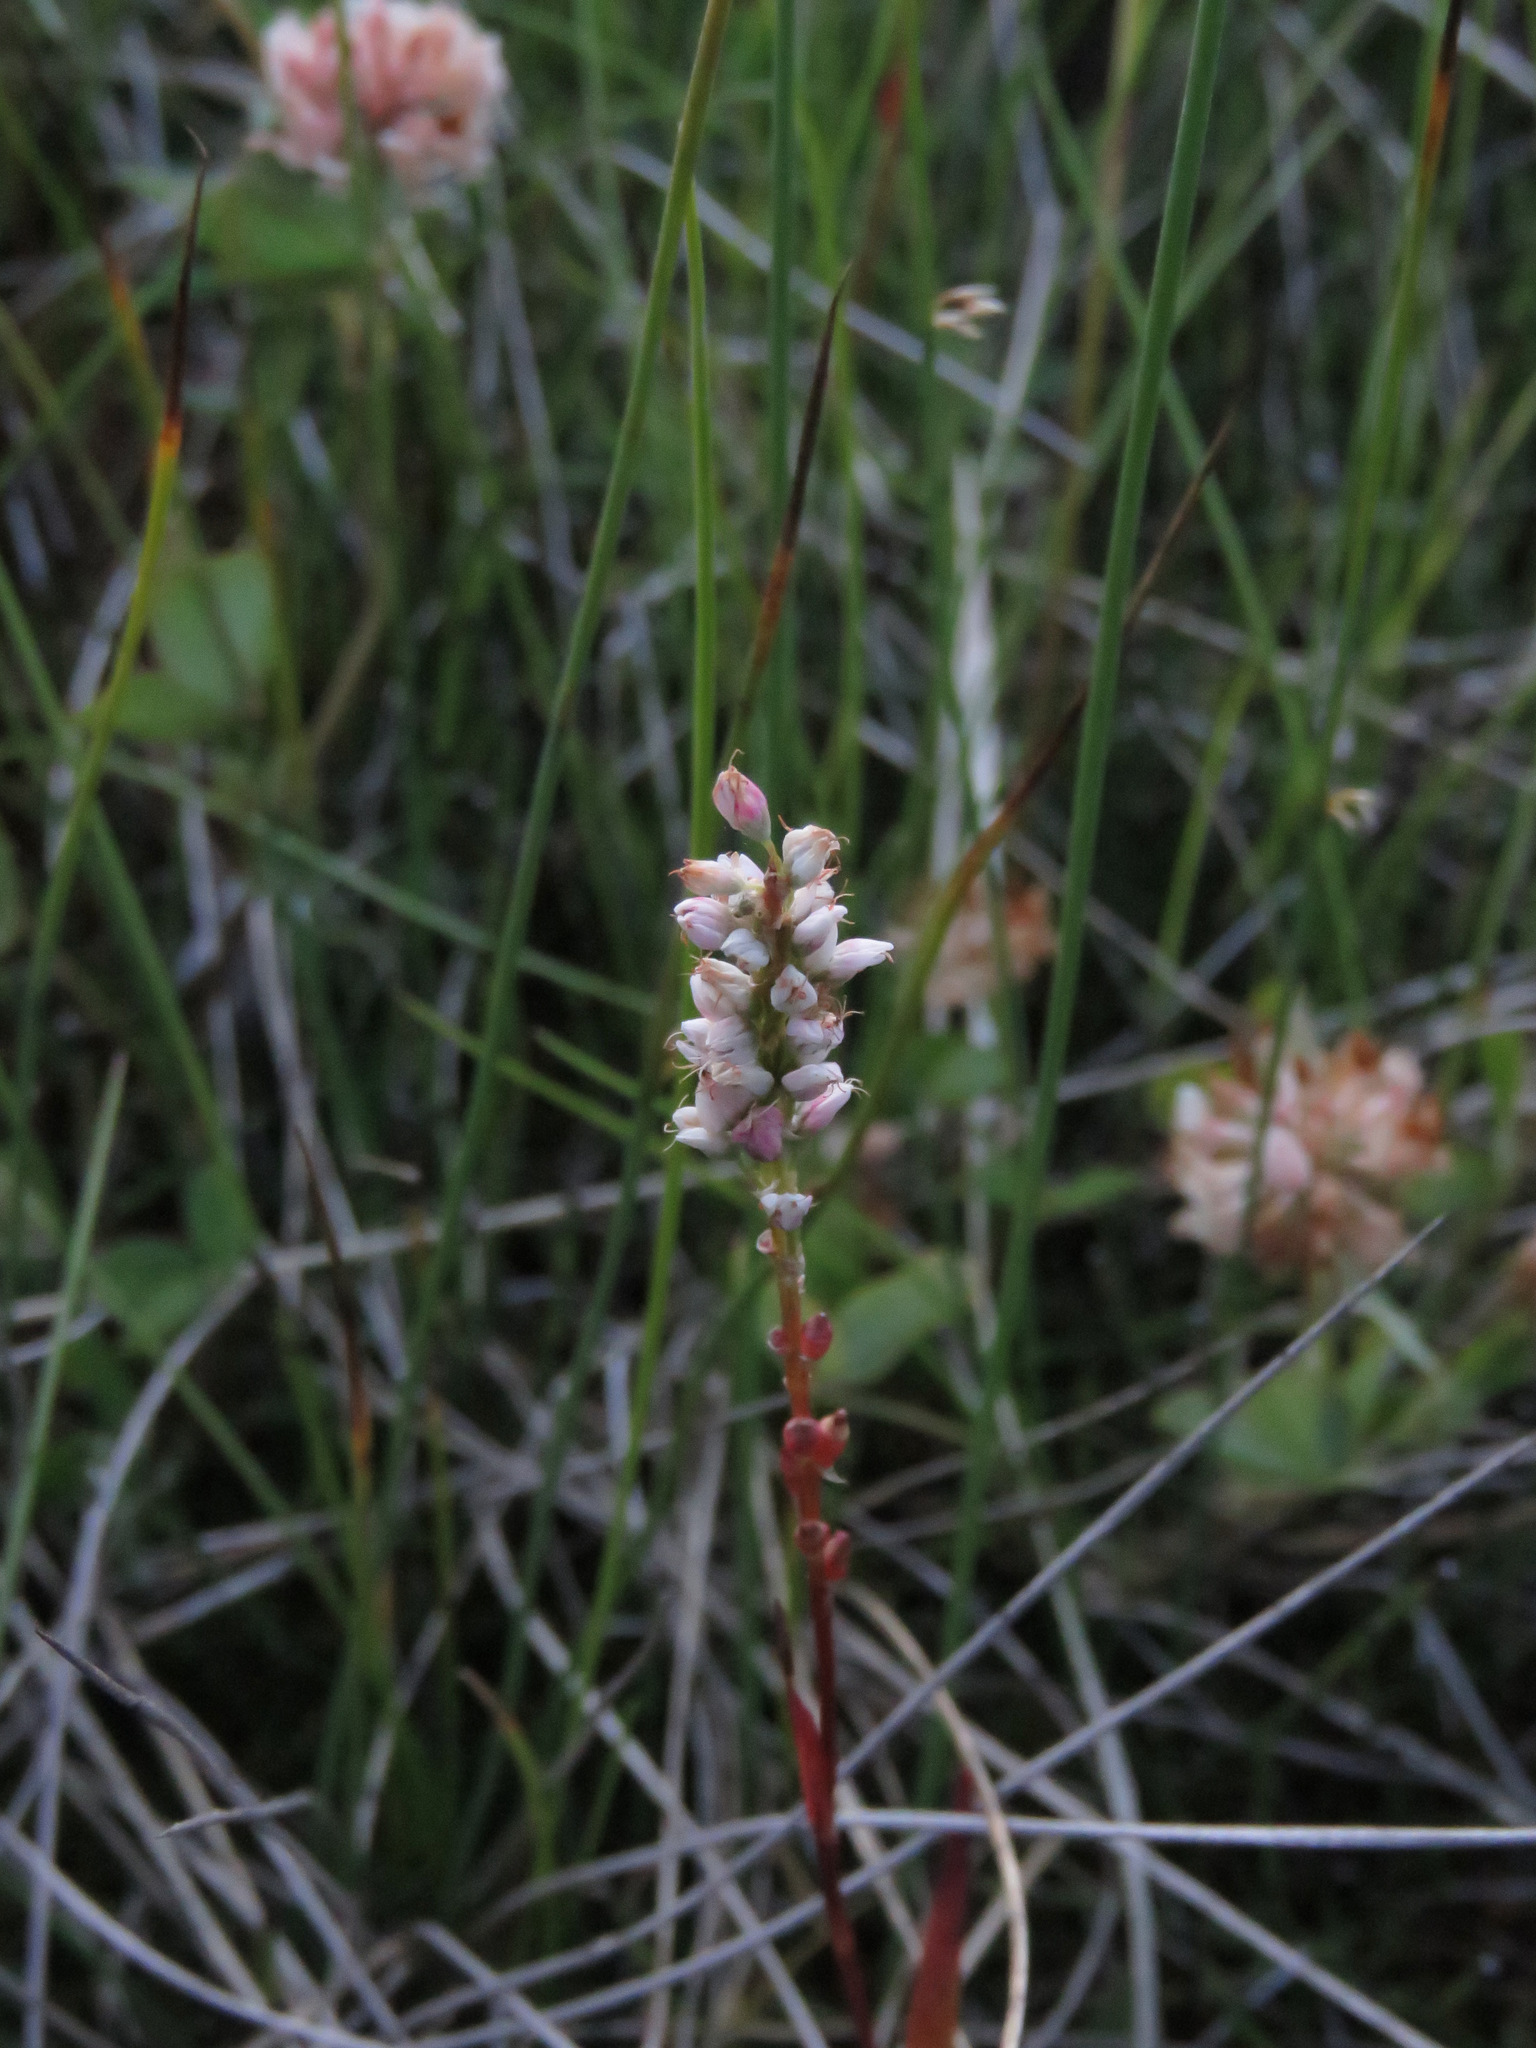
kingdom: Plantae
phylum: Tracheophyta
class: Magnoliopsida
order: Caryophyllales
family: Polygonaceae
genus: Bistorta
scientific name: Bistorta vivipara
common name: Alpine bistort
